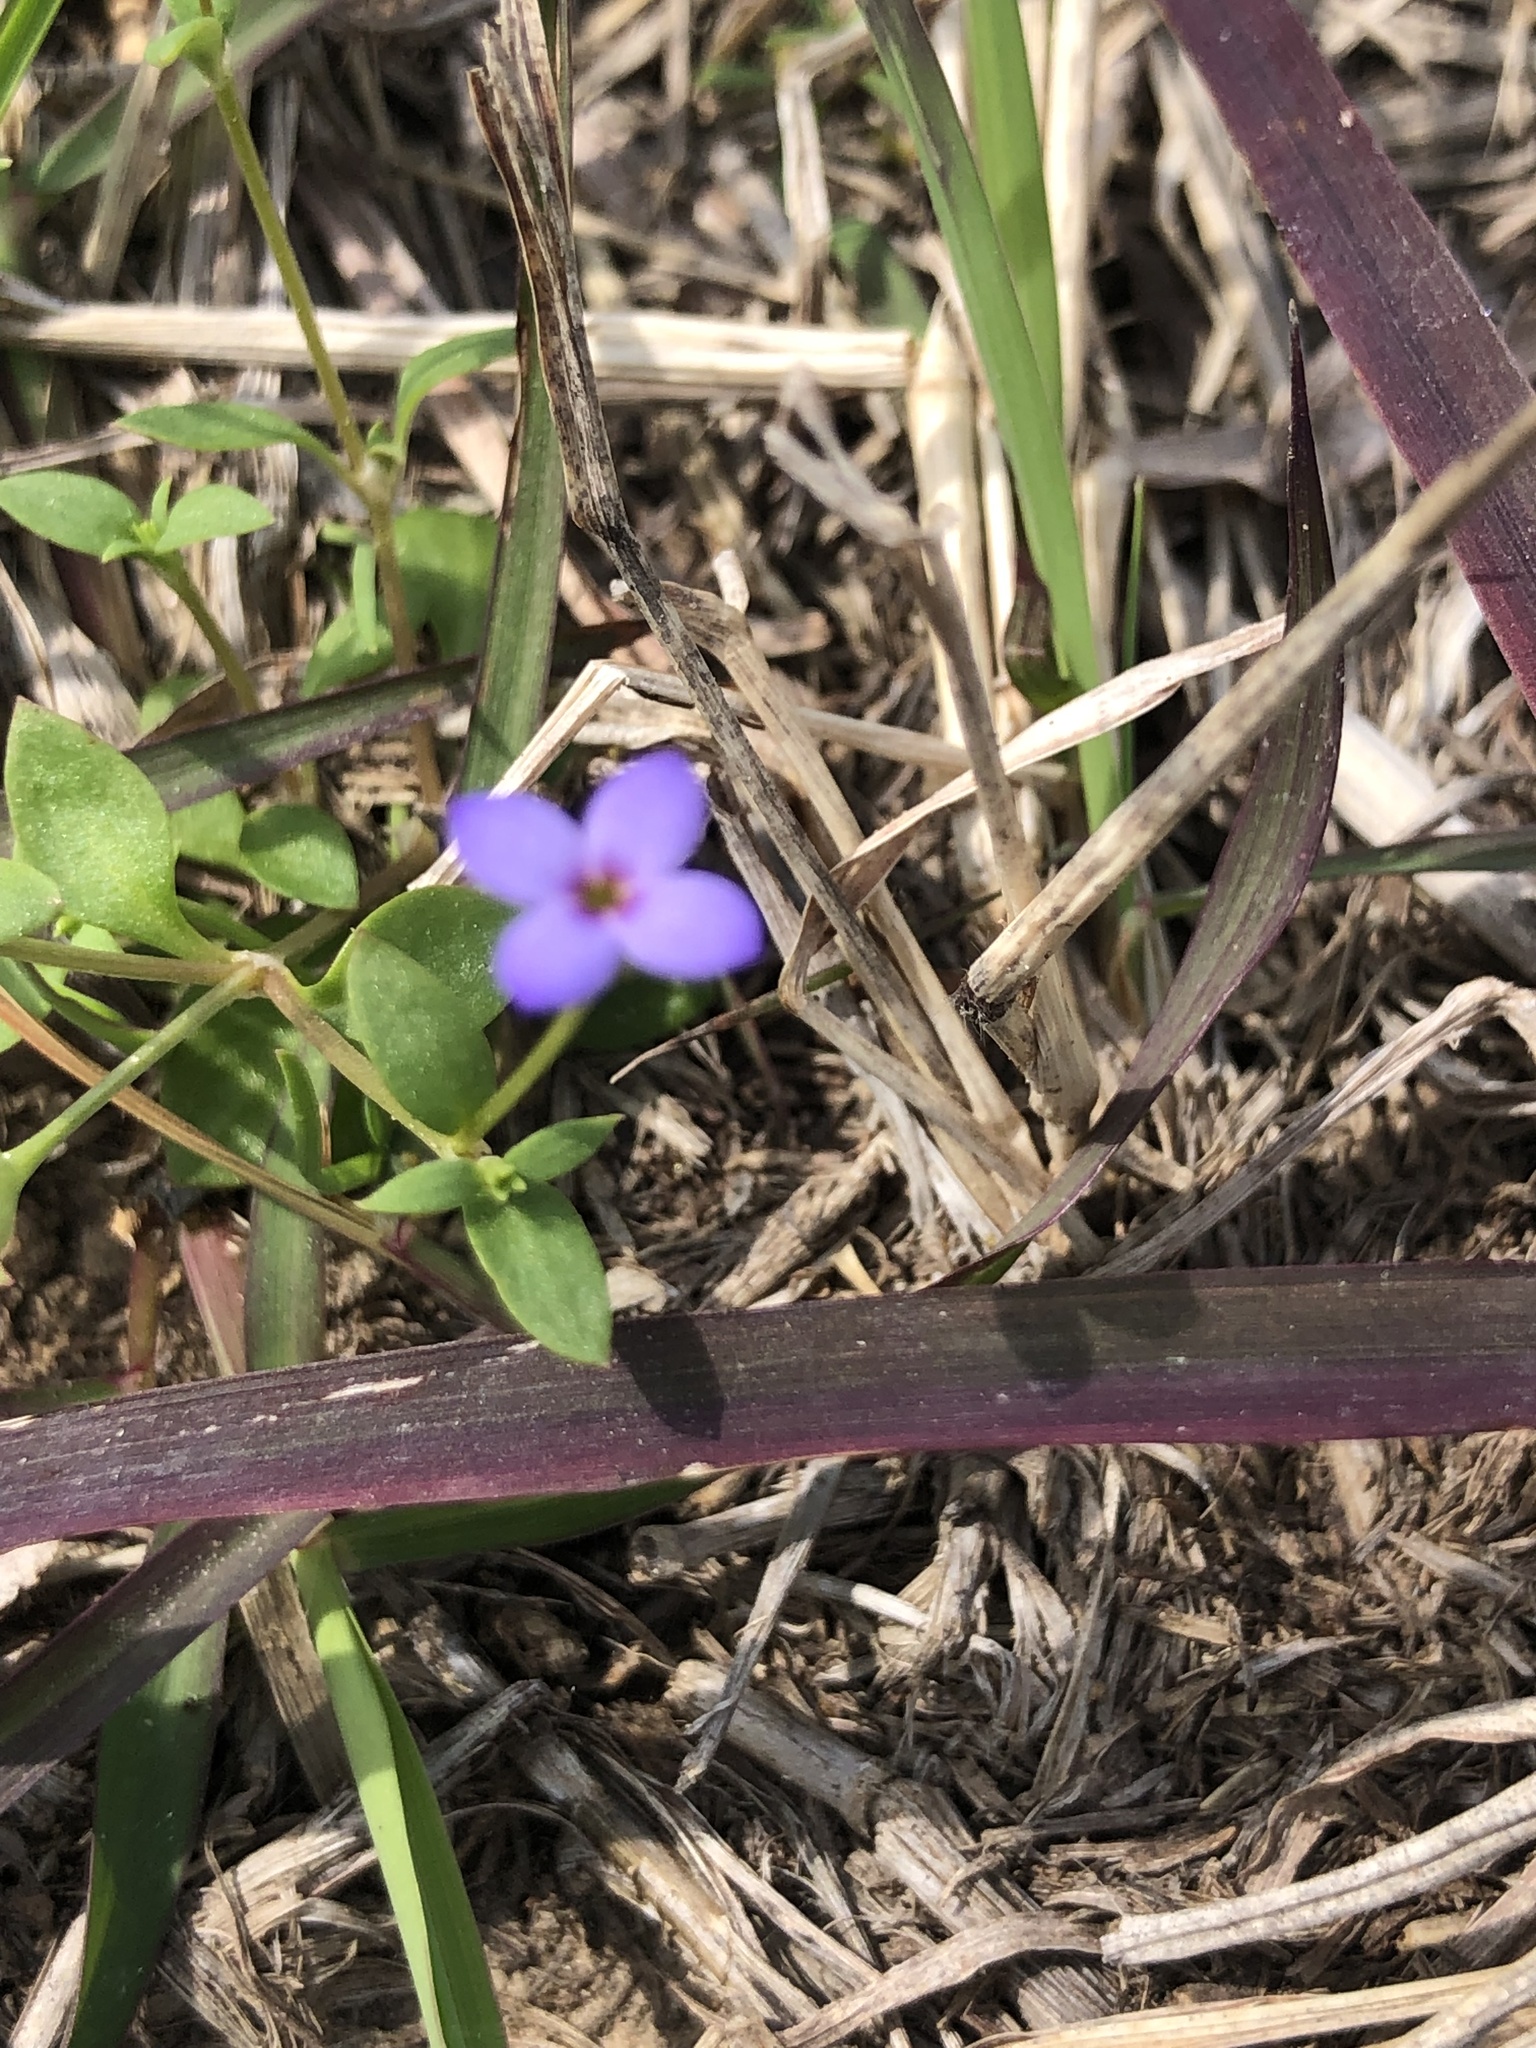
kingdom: Plantae
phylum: Tracheophyta
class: Magnoliopsida
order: Gentianales
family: Rubiaceae
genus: Houstonia
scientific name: Houstonia pusilla
